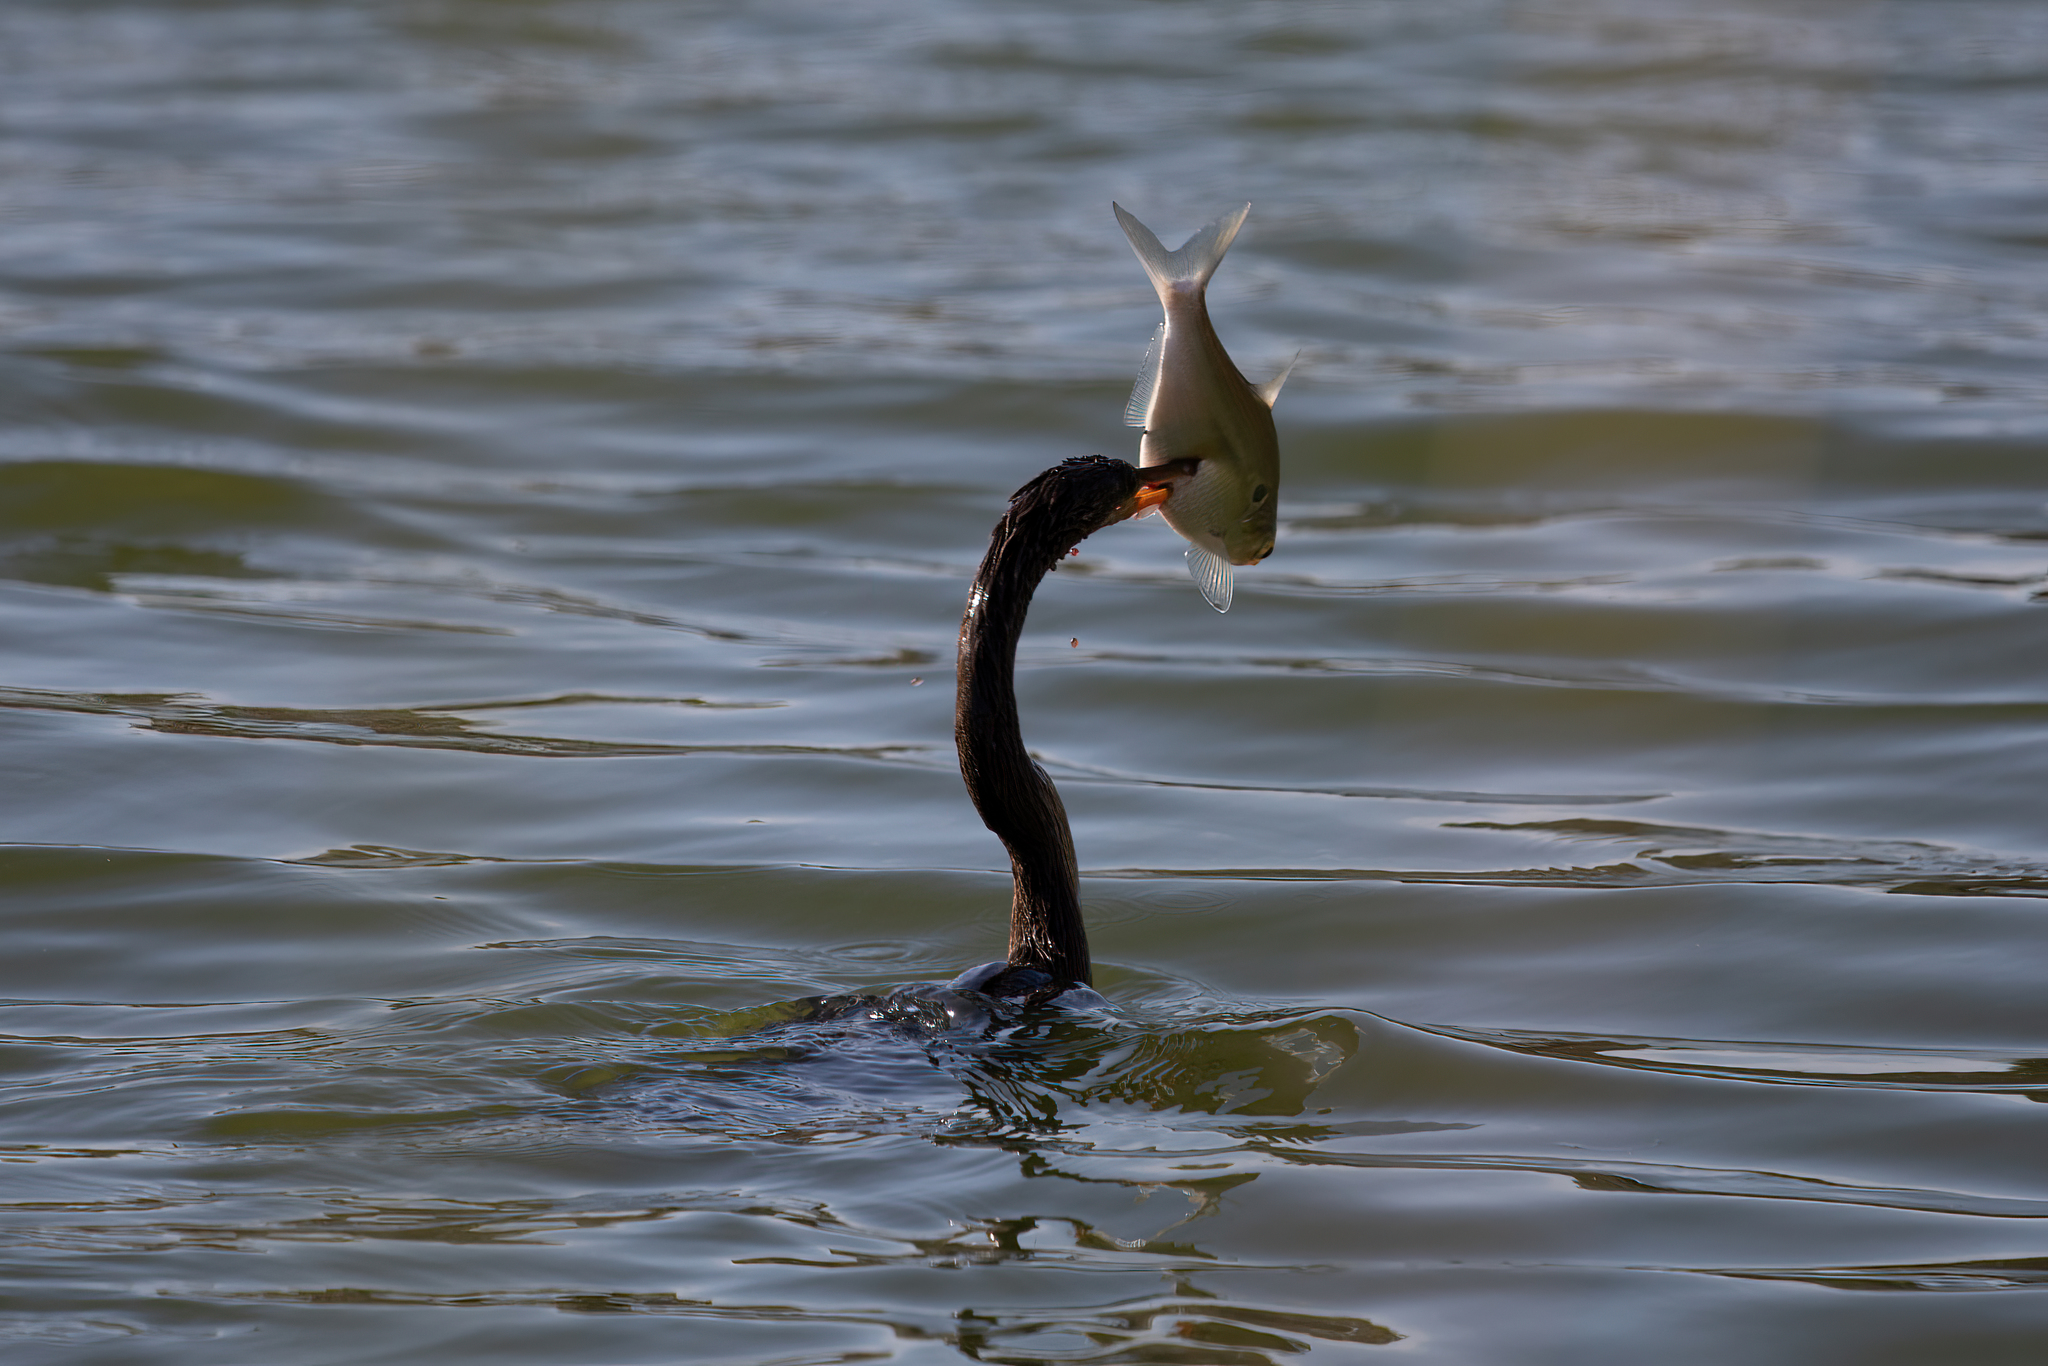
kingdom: Animalia
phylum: Chordata
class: Aves
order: Suliformes
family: Anhingidae
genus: Anhinga
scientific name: Anhinga anhinga
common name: Anhinga
